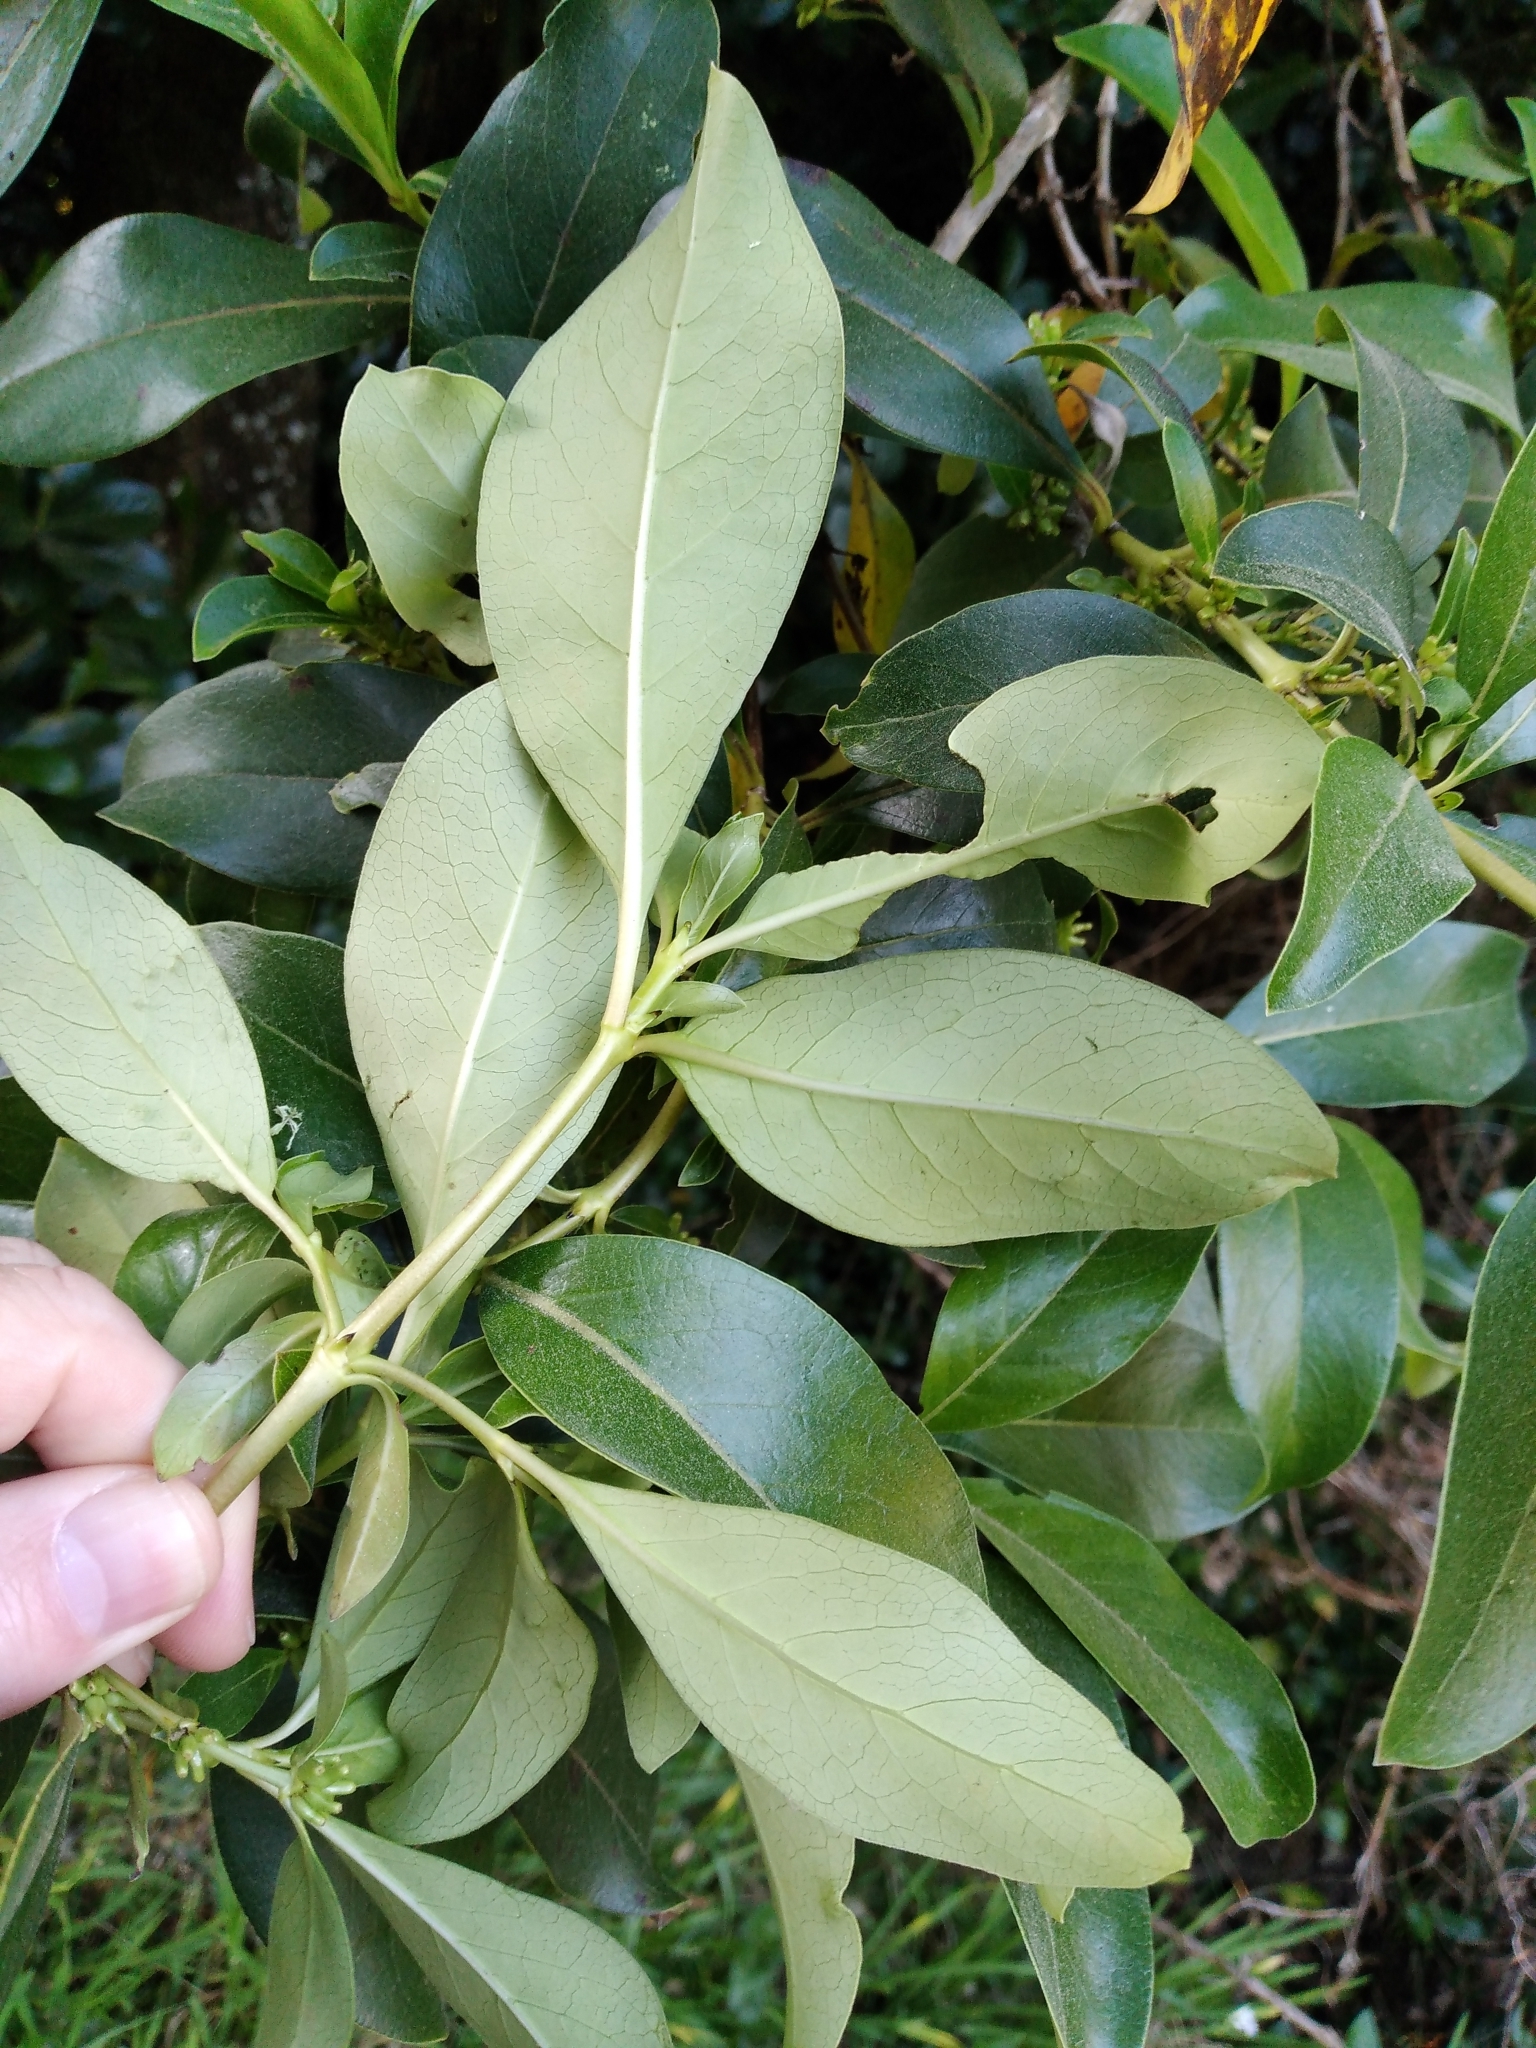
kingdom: Plantae
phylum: Tracheophyta
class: Magnoliopsida
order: Gentianales
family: Rubiaceae
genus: Coprosma
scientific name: Coprosma robusta
